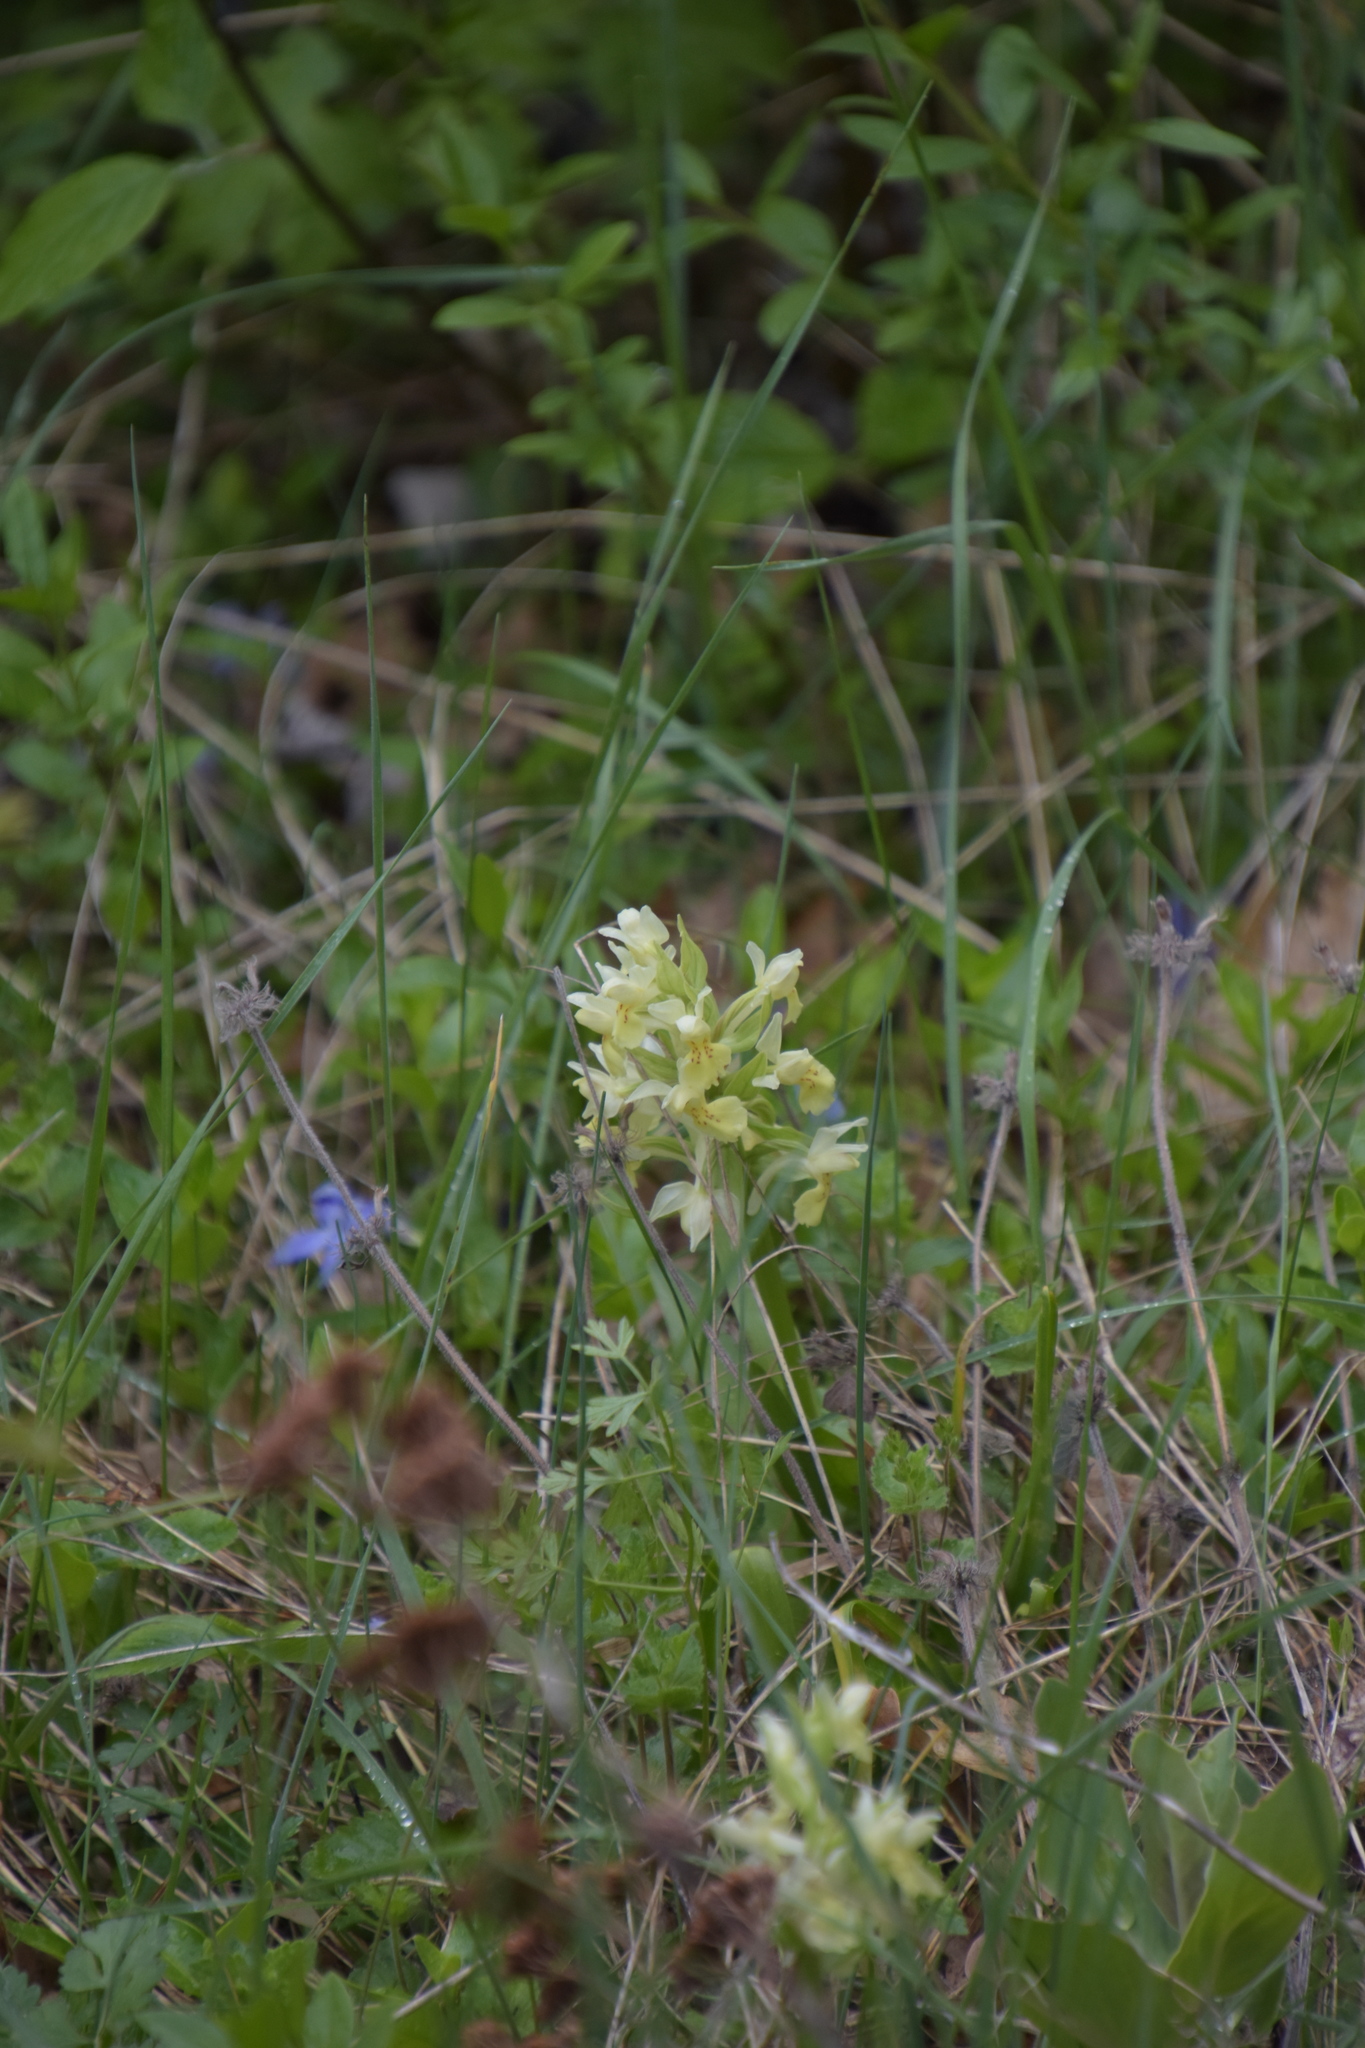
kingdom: Plantae
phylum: Tracheophyta
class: Liliopsida
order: Asparagales
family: Orchidaceae
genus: Dactylorhiza
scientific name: Dactylorhiza sambucina
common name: Elder-flowered orchid
